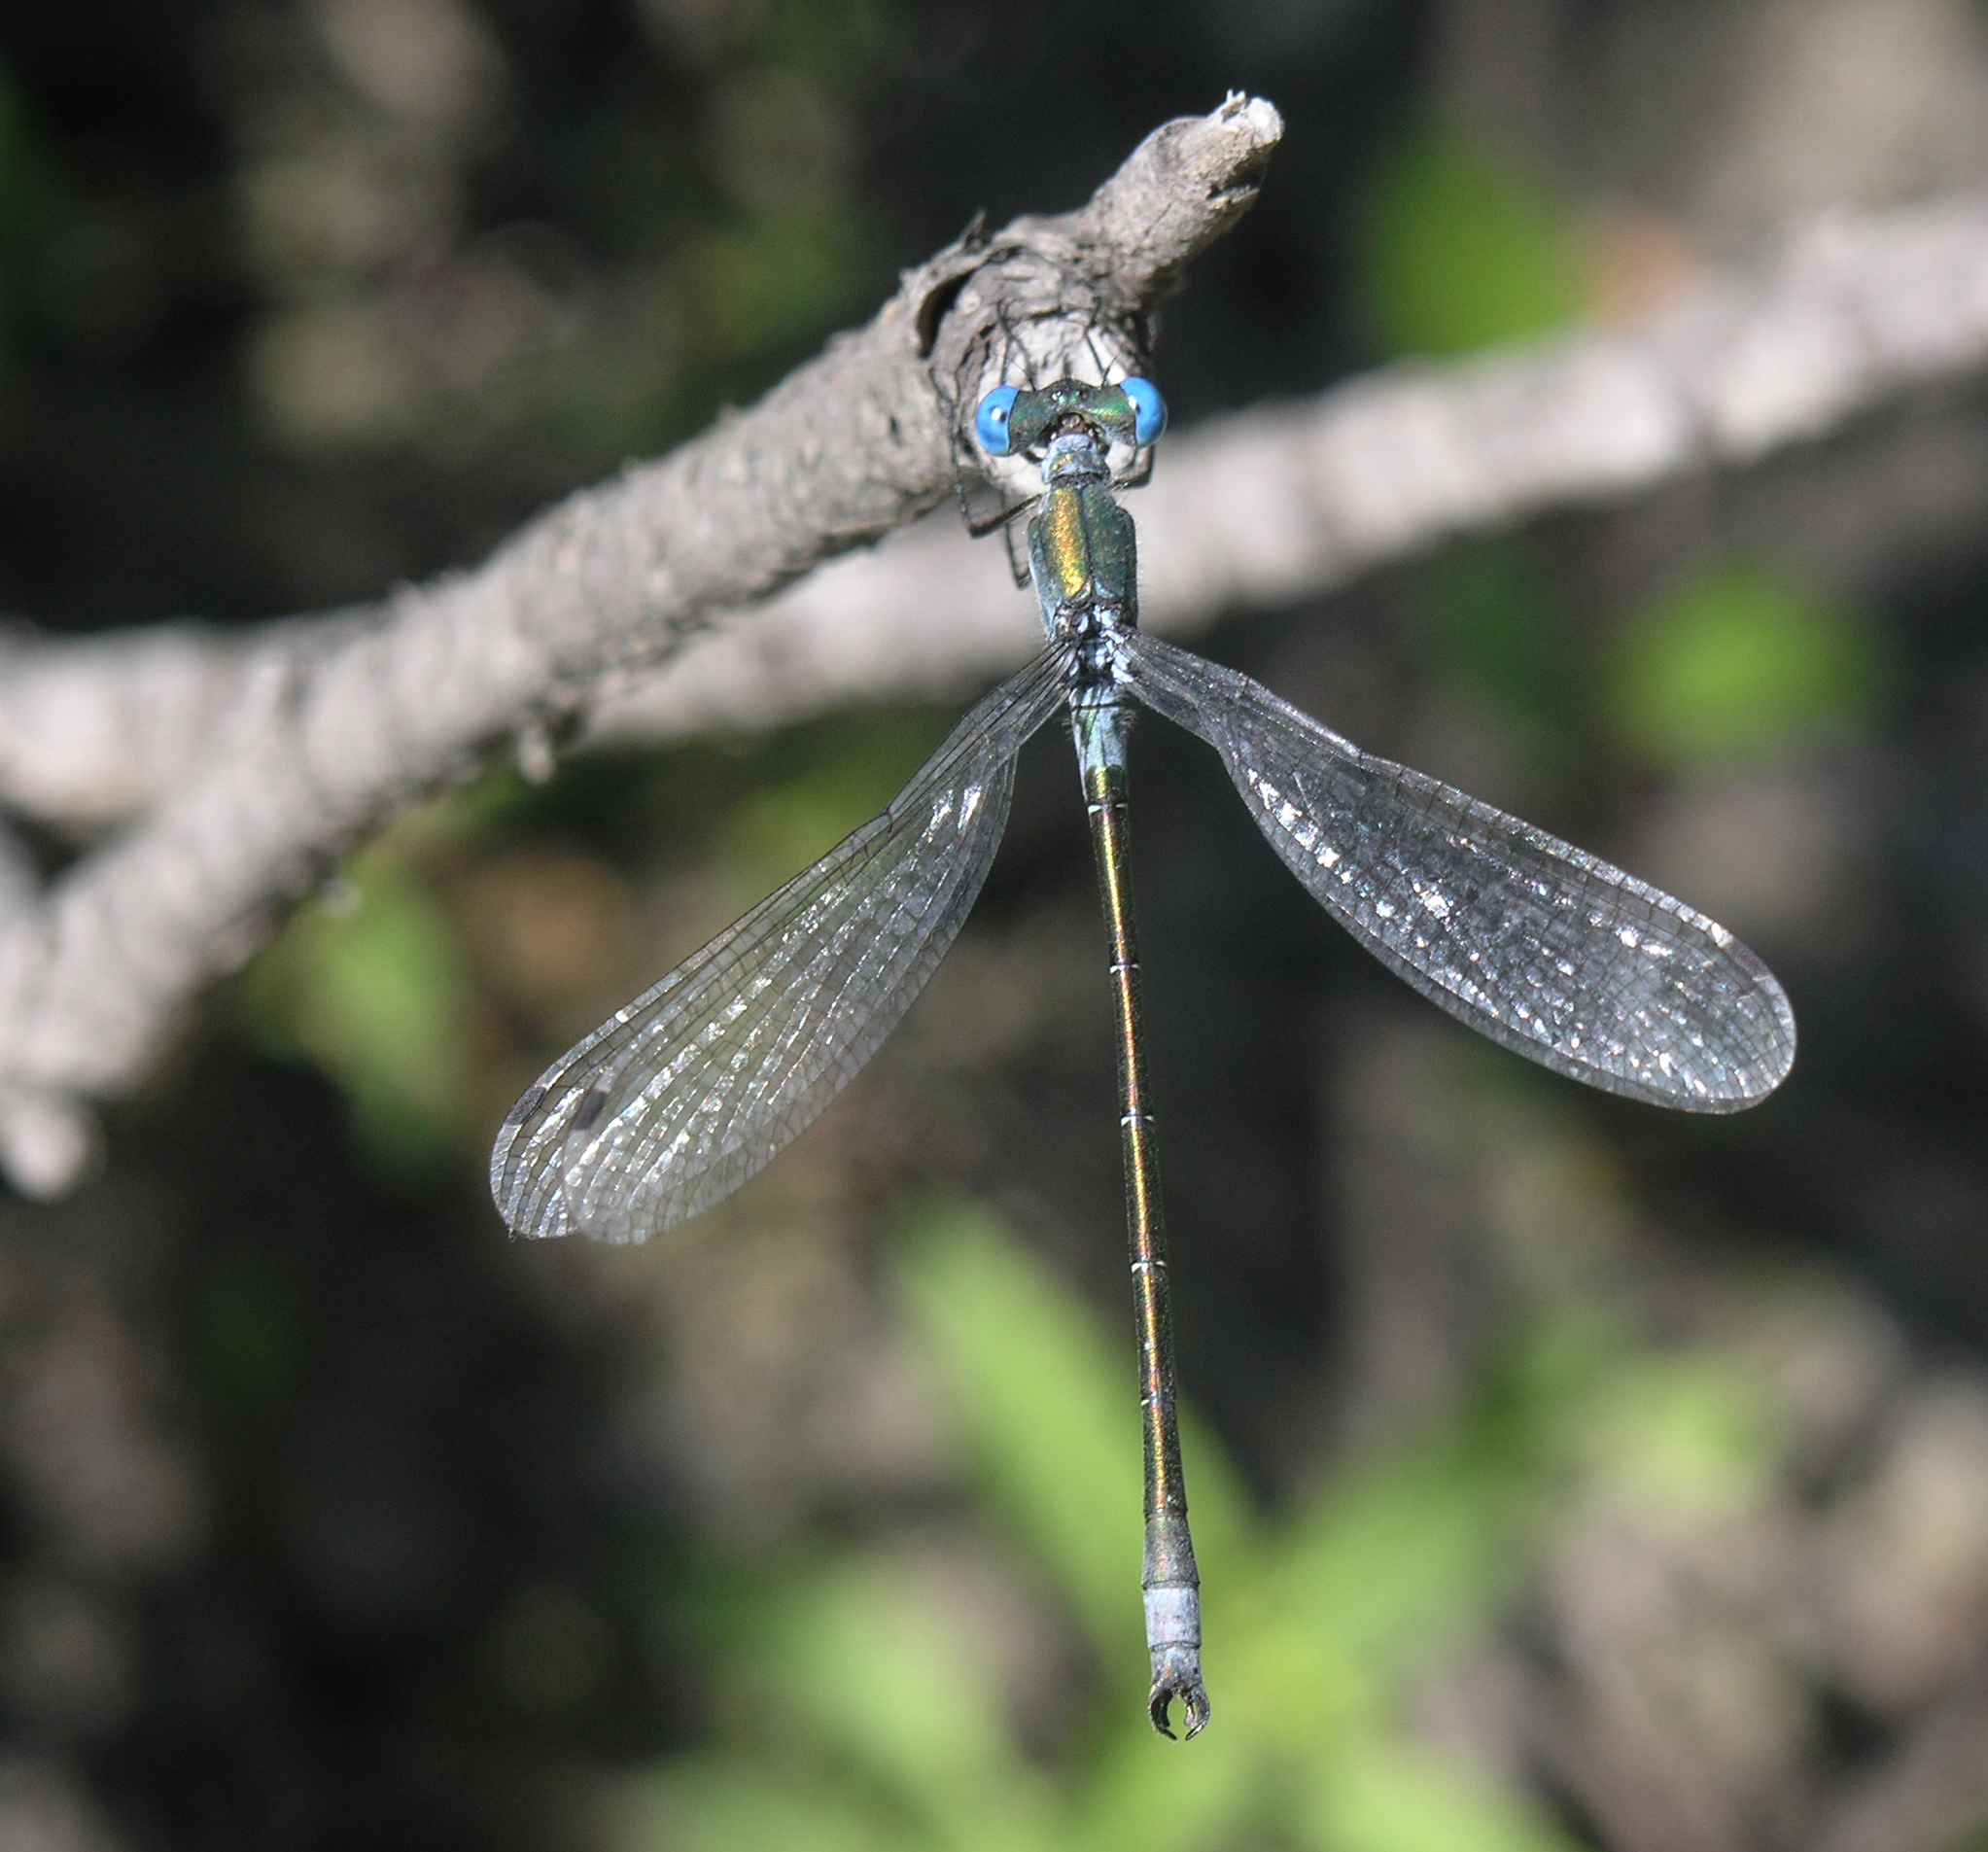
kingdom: Animalia
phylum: Arthropoda
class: Insecta
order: Odonata
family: Lestidae
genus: Lestes
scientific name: Lestes dryas
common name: Scarce emerald damselfly
